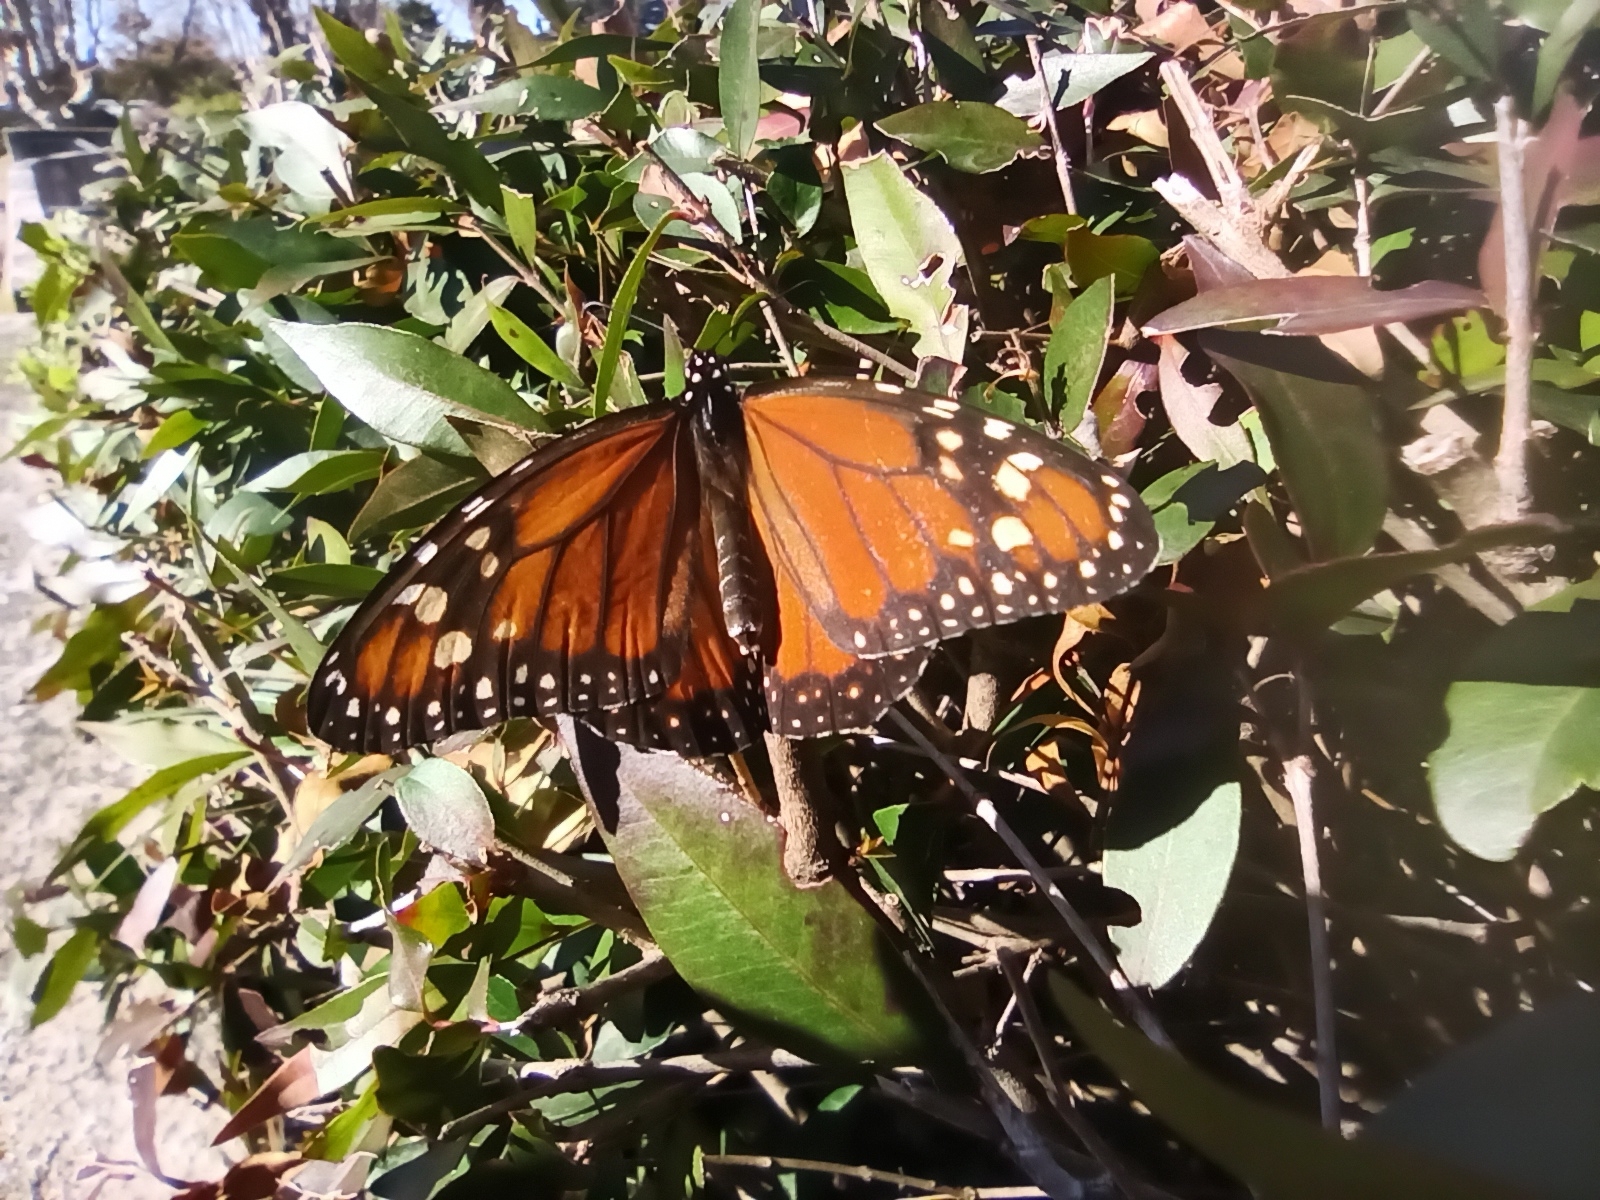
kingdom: Animalia
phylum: Arthropoda
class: Insecta
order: Lepidoptera
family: Nymphalidae
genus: Danaus
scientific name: Danaus erippus
